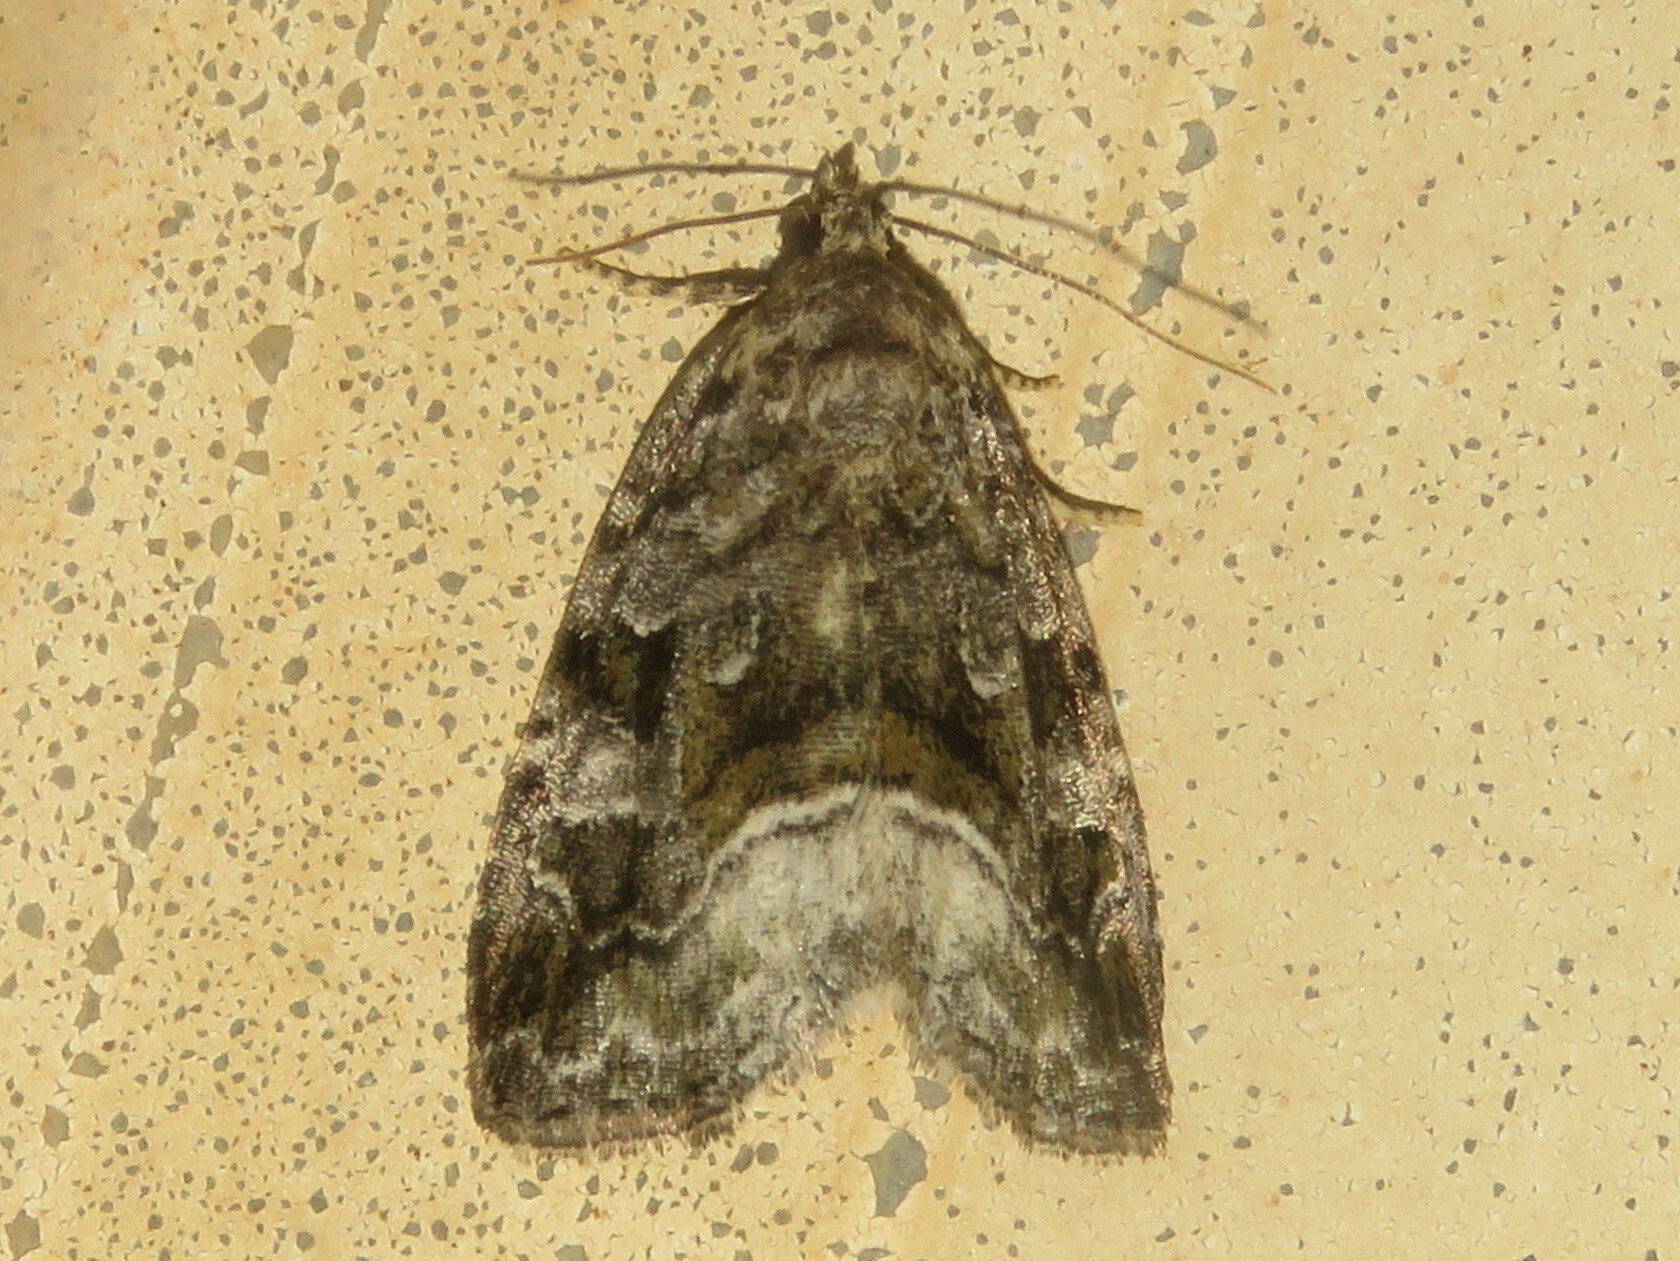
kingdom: Animalia
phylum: Arthropoda
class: Insecta
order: Lepidoptera
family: Noctuidae
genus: Protodeltote
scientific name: Protodeltote muscosula
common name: Large mossy glyph
